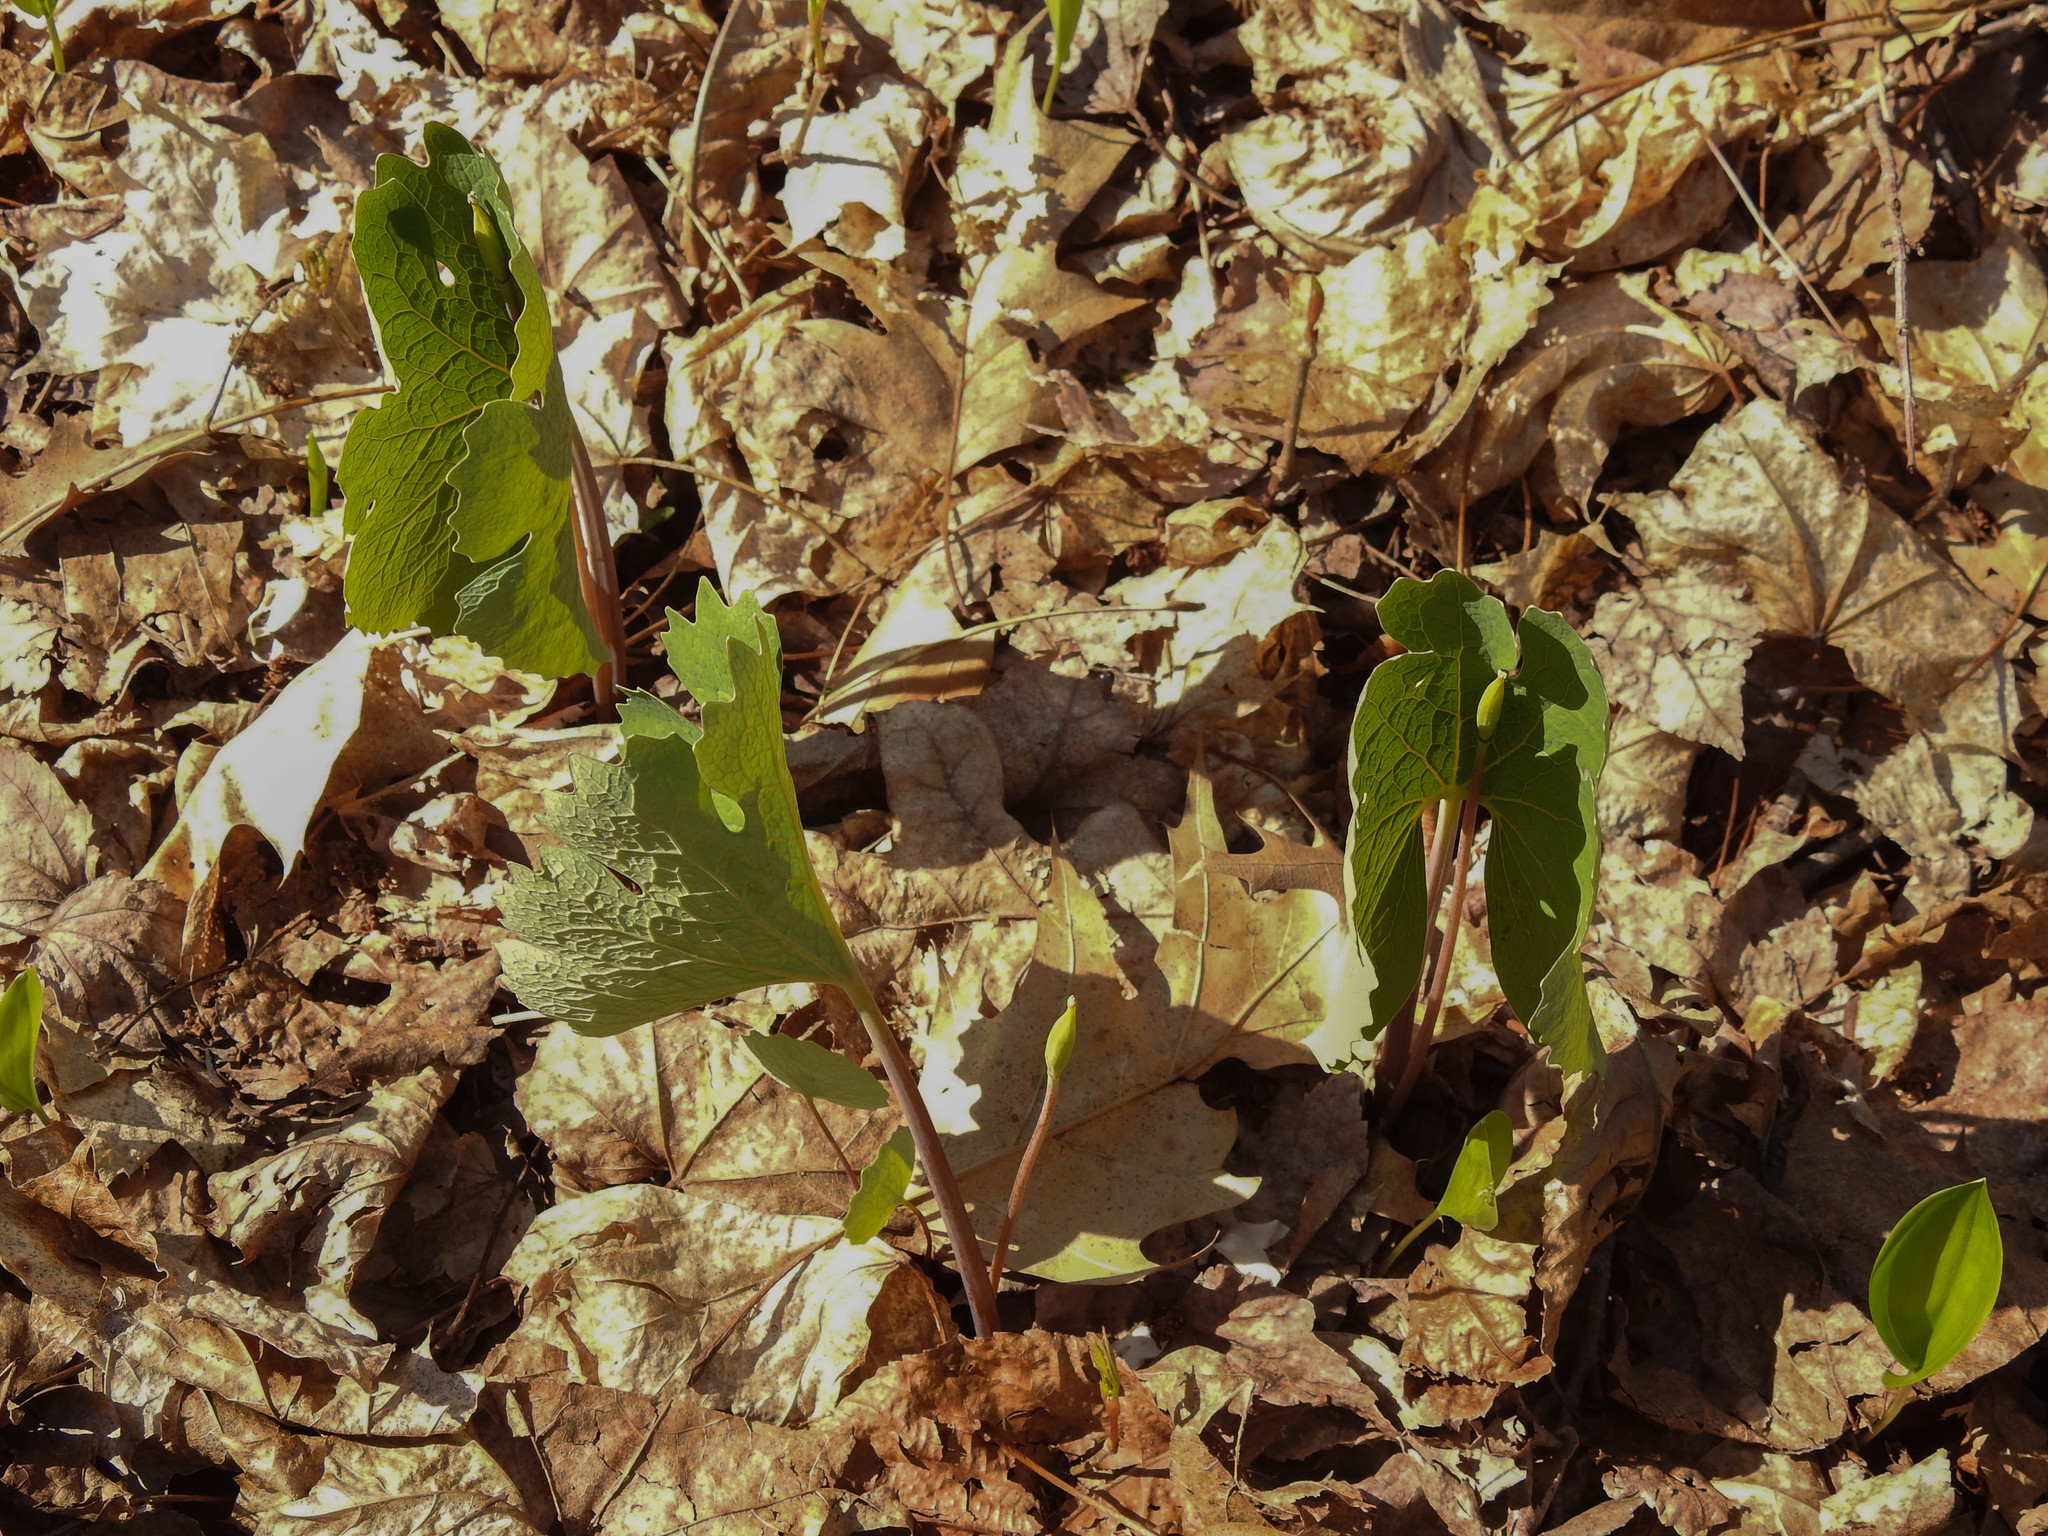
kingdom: Plantae
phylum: Tracheophyta
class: Magnoliopsida
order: Ranunculales
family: Papaveraceae
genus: Sanguinaria
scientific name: Sanguinaria canadensis
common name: Bloodroot
